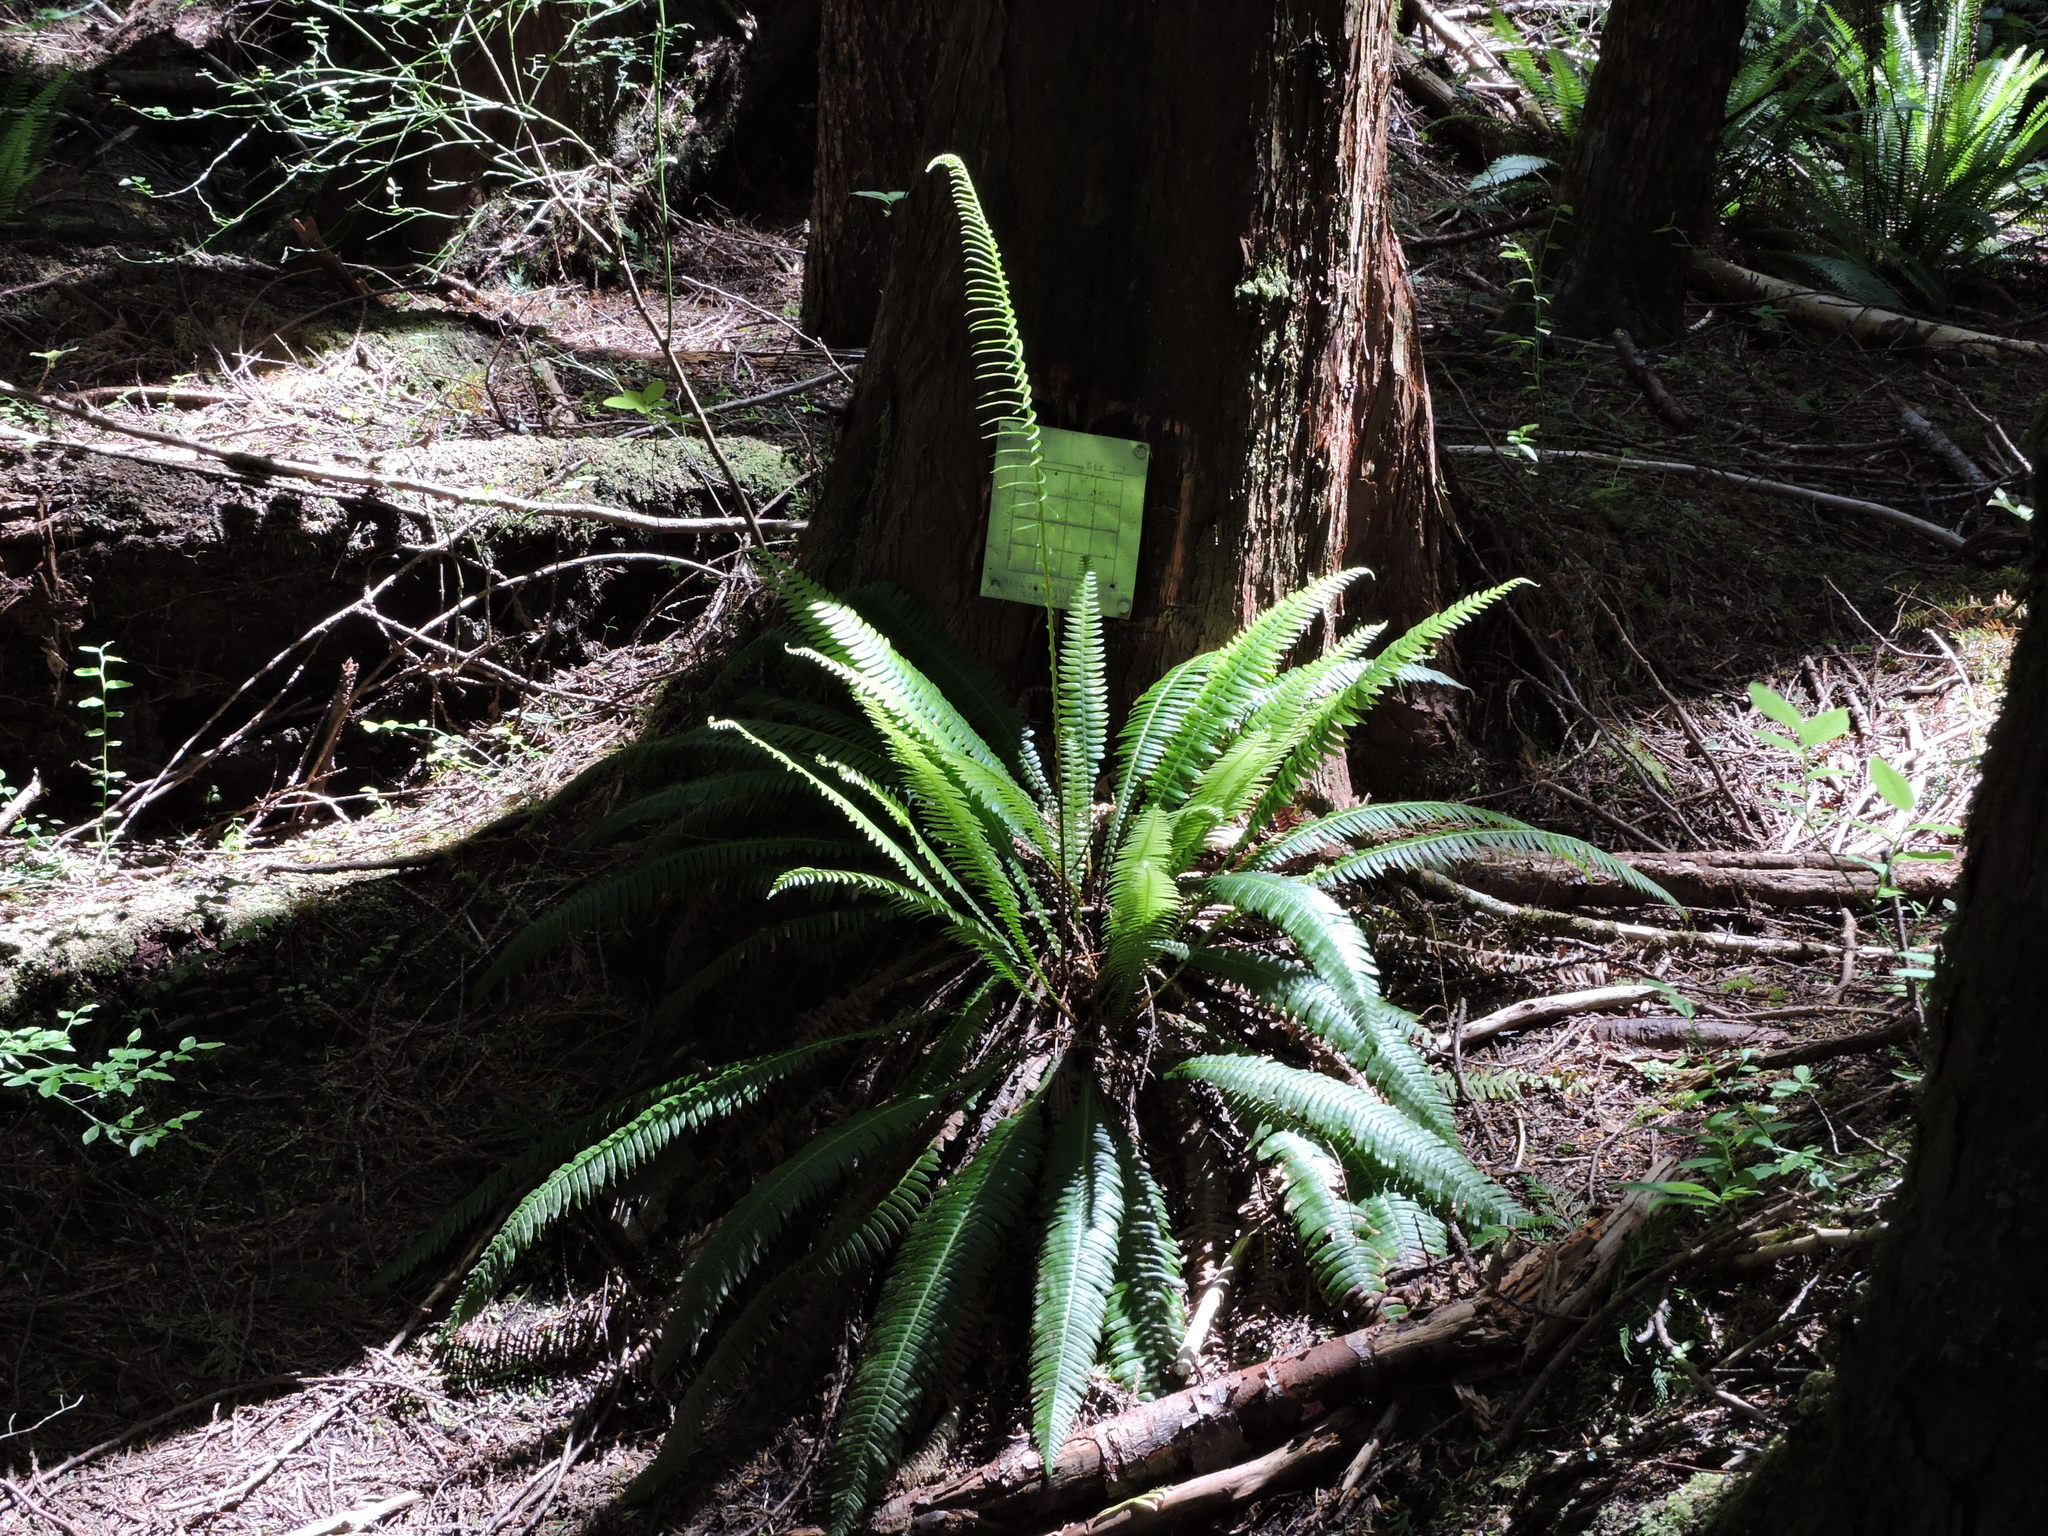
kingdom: Plantae
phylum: Tracheophyta
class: Polypodiopsida
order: Polypodiales
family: Blechnaceae
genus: Struthiopteris
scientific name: Struthiopteris spicant
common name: Deer fern
